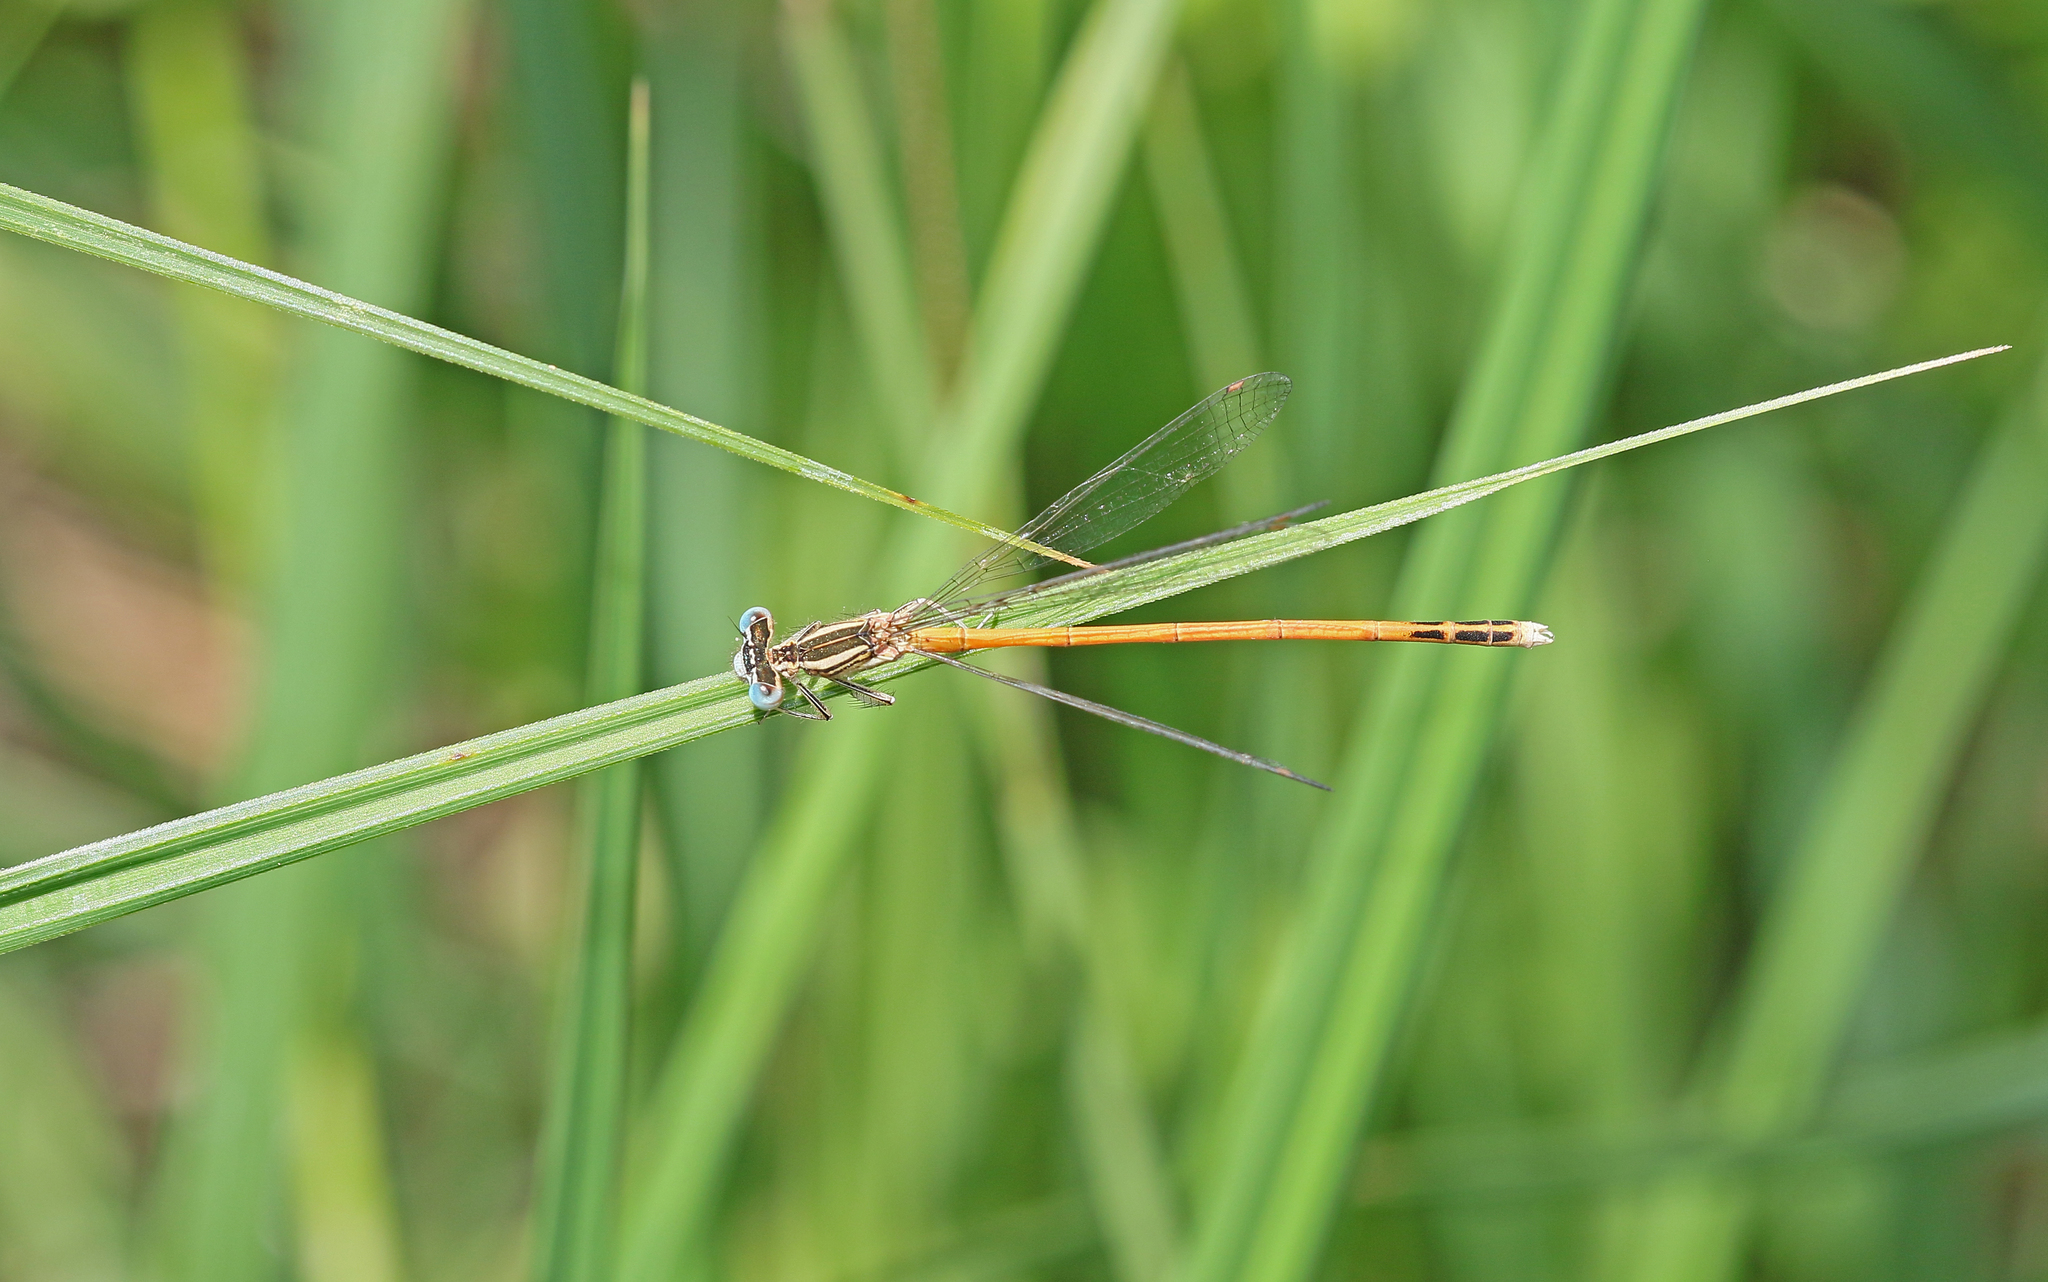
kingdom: Animalia
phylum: Arthropoda
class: Insecta
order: Odonata
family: Platycnemididae
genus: Platycnemis
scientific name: Platycnemis acutipennis
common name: Orange featherleg
